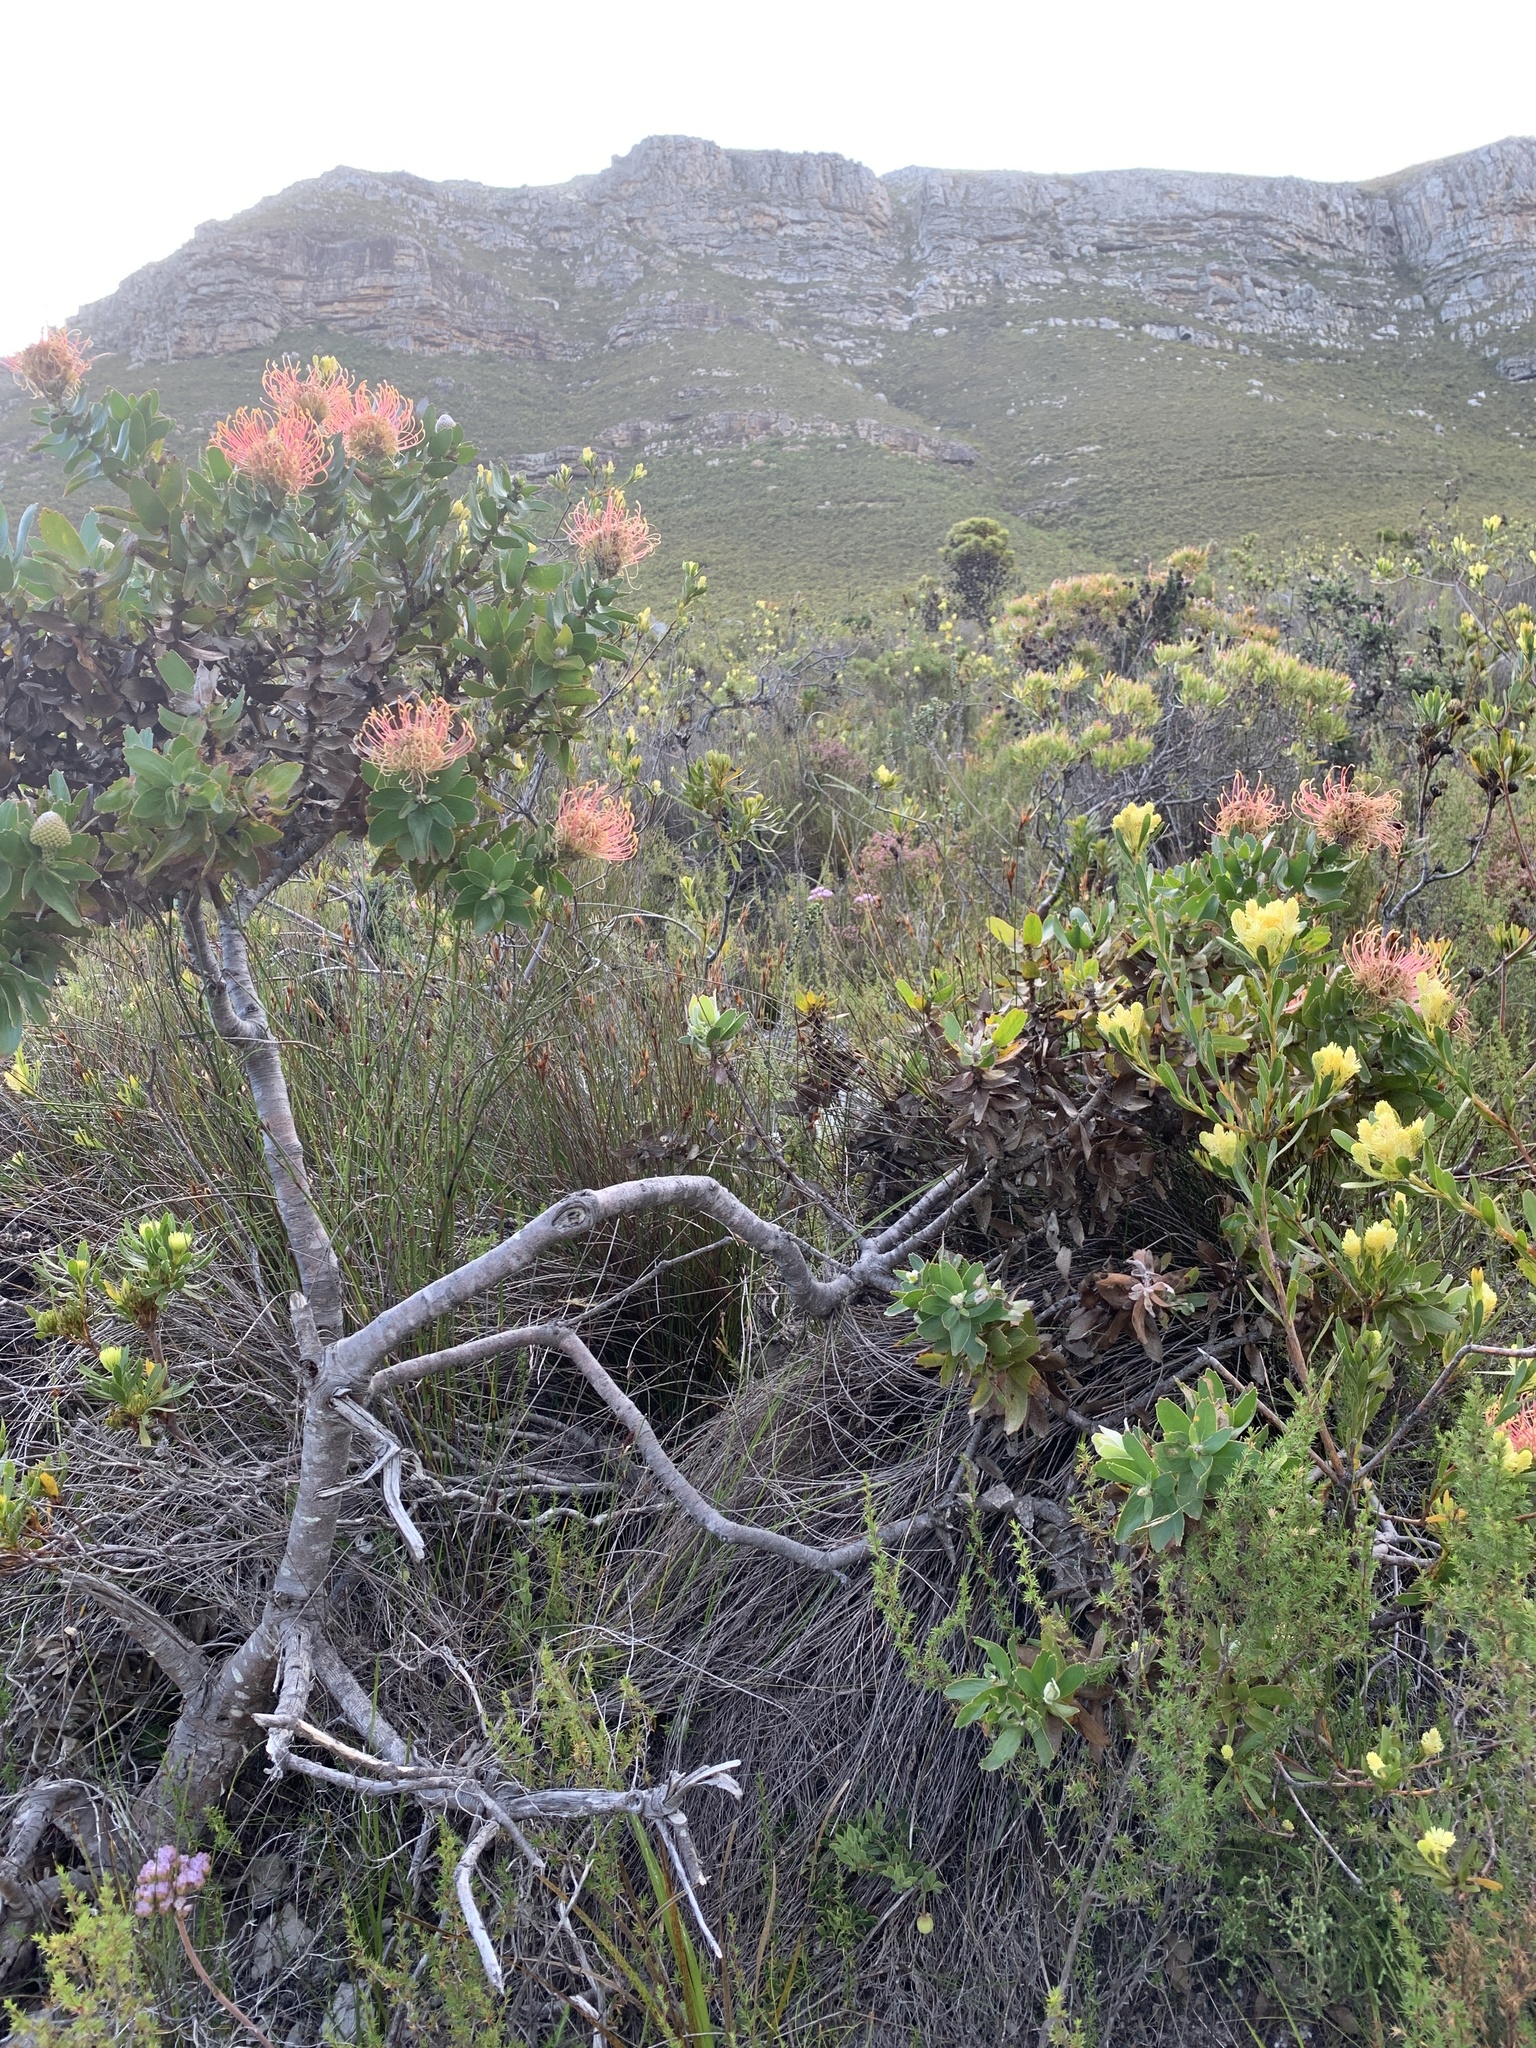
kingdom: Plantae
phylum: Tracheophyta
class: Magnoliopsida
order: Proteales
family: Proteaceae
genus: Leucospermum
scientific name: Leucospermum
